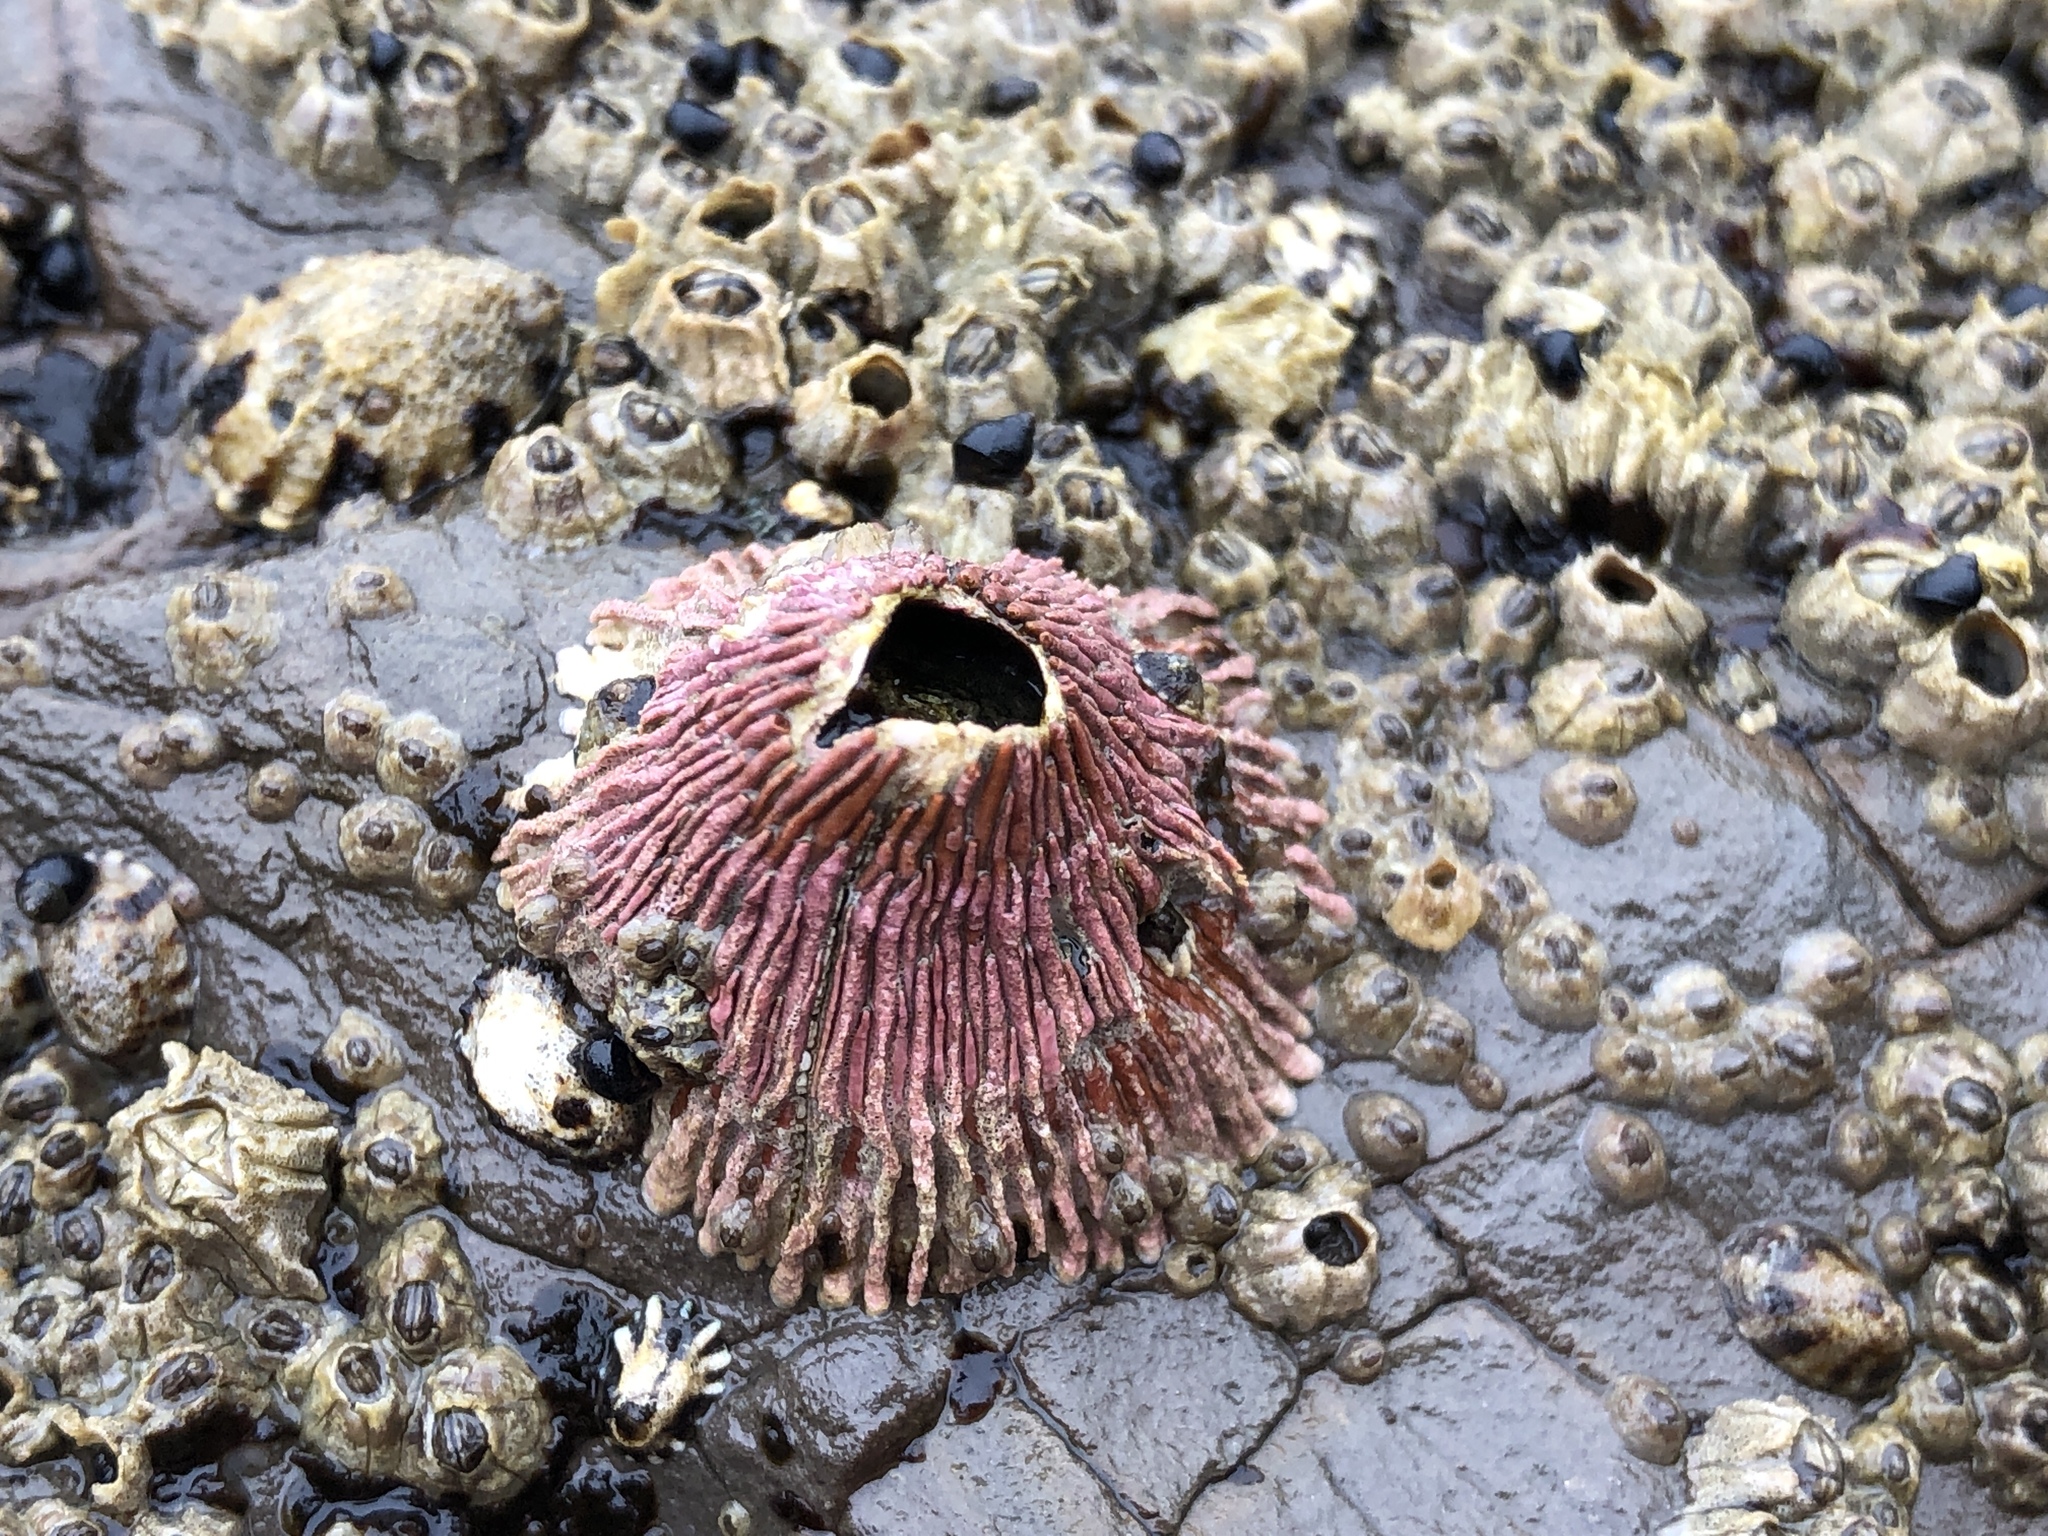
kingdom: Animalia
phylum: Arthropoda
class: Maxillopoda
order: Sessilia
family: Tetraclitidae
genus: Tetraclita
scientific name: Tetraclita rubescens
